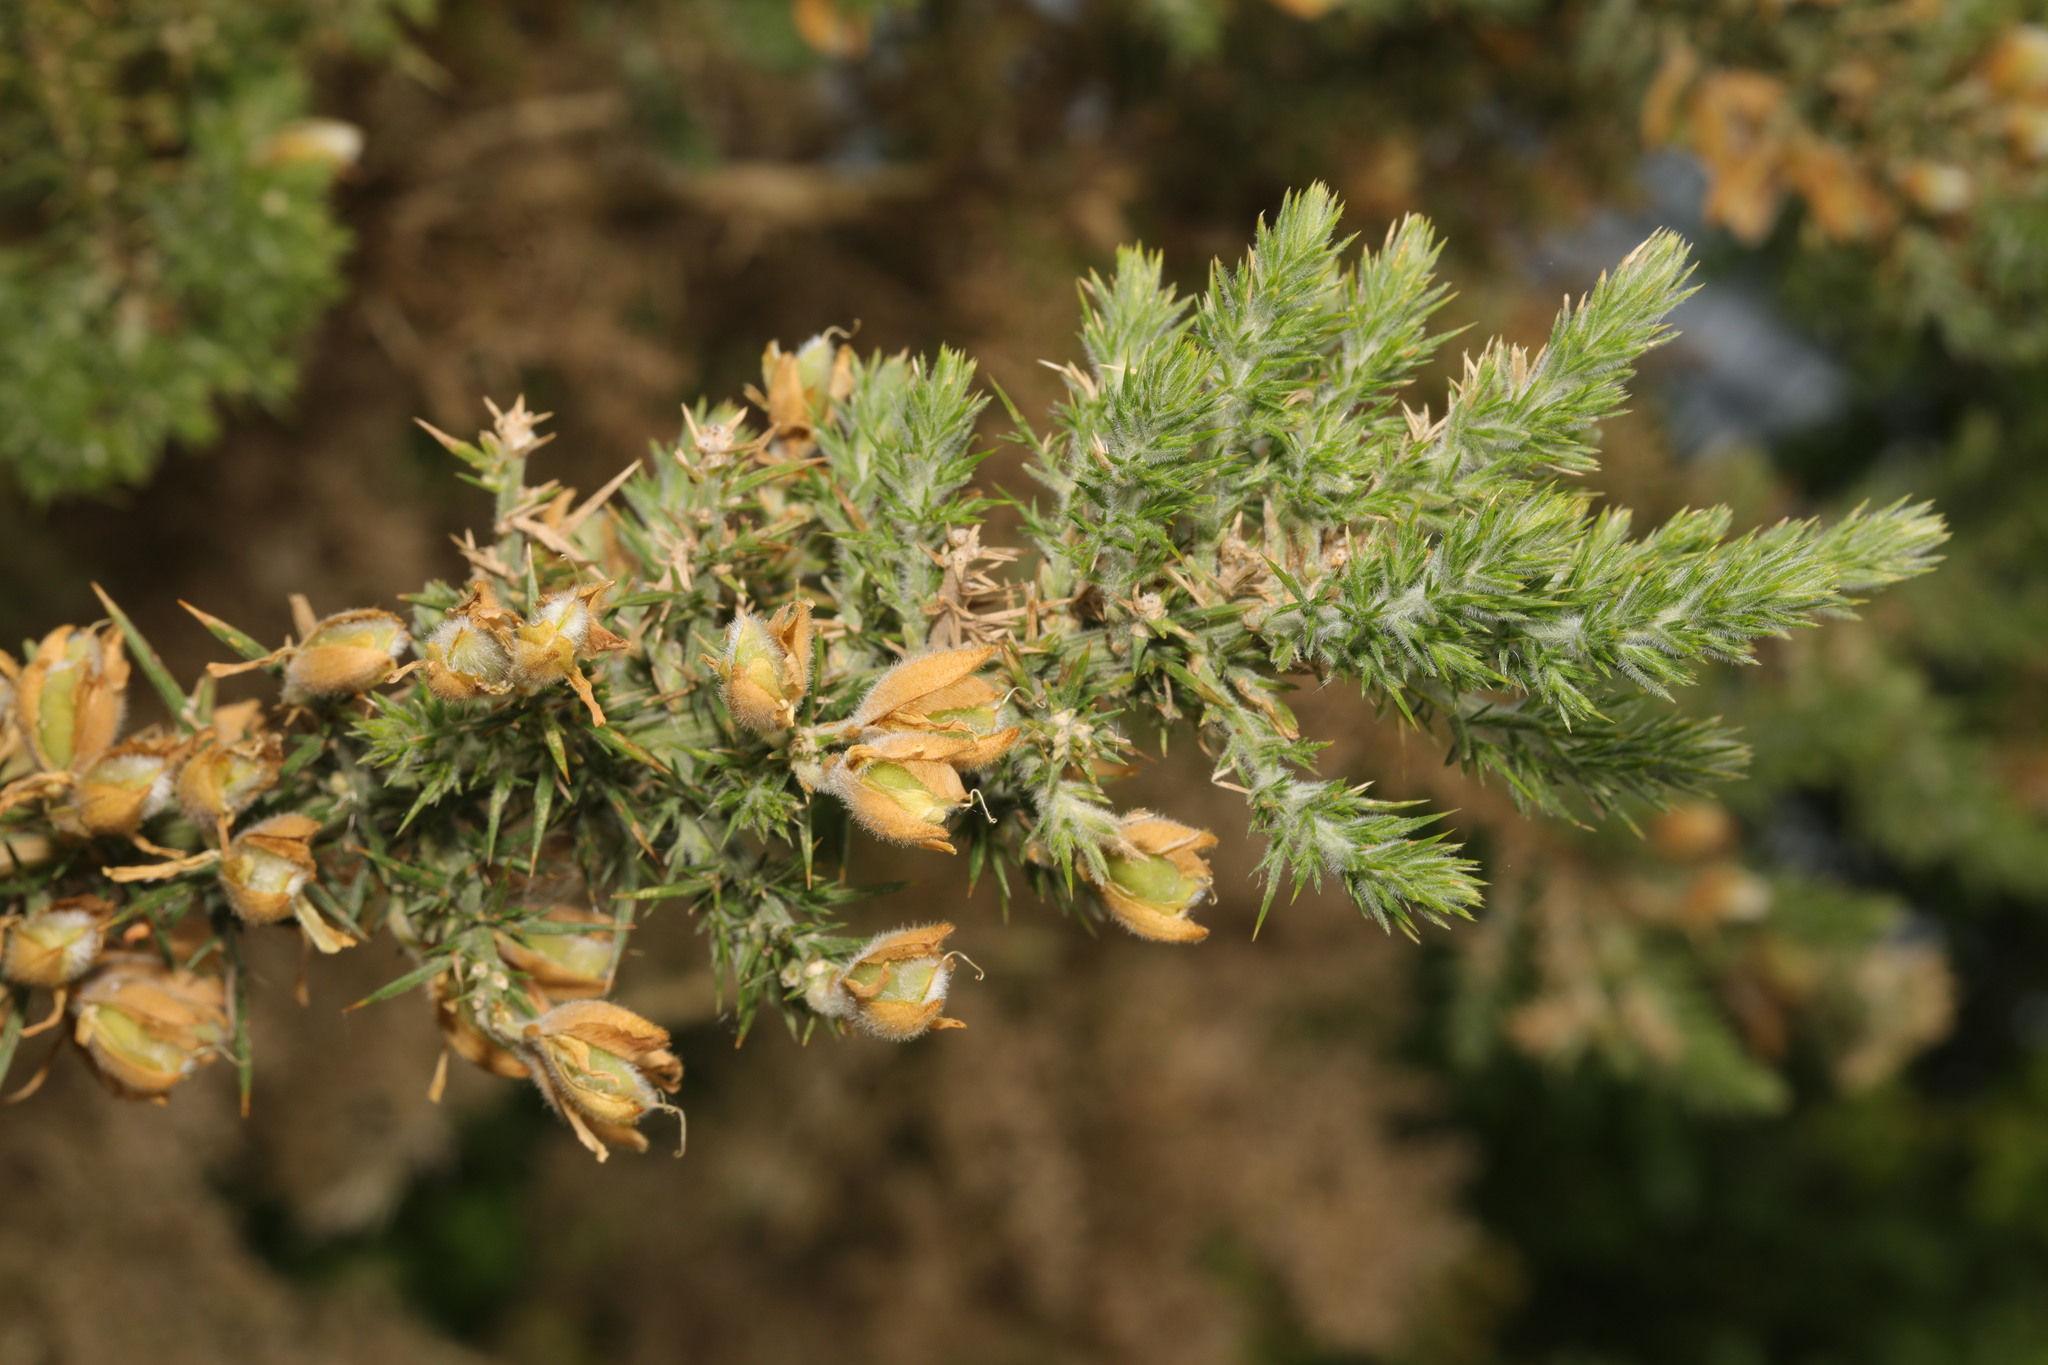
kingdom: Plantae
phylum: Tracheophyta
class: Magnoliopsida
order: Fabales
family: Fabaceae
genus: Ulex
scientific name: Ulex europaeus
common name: Common gorse
